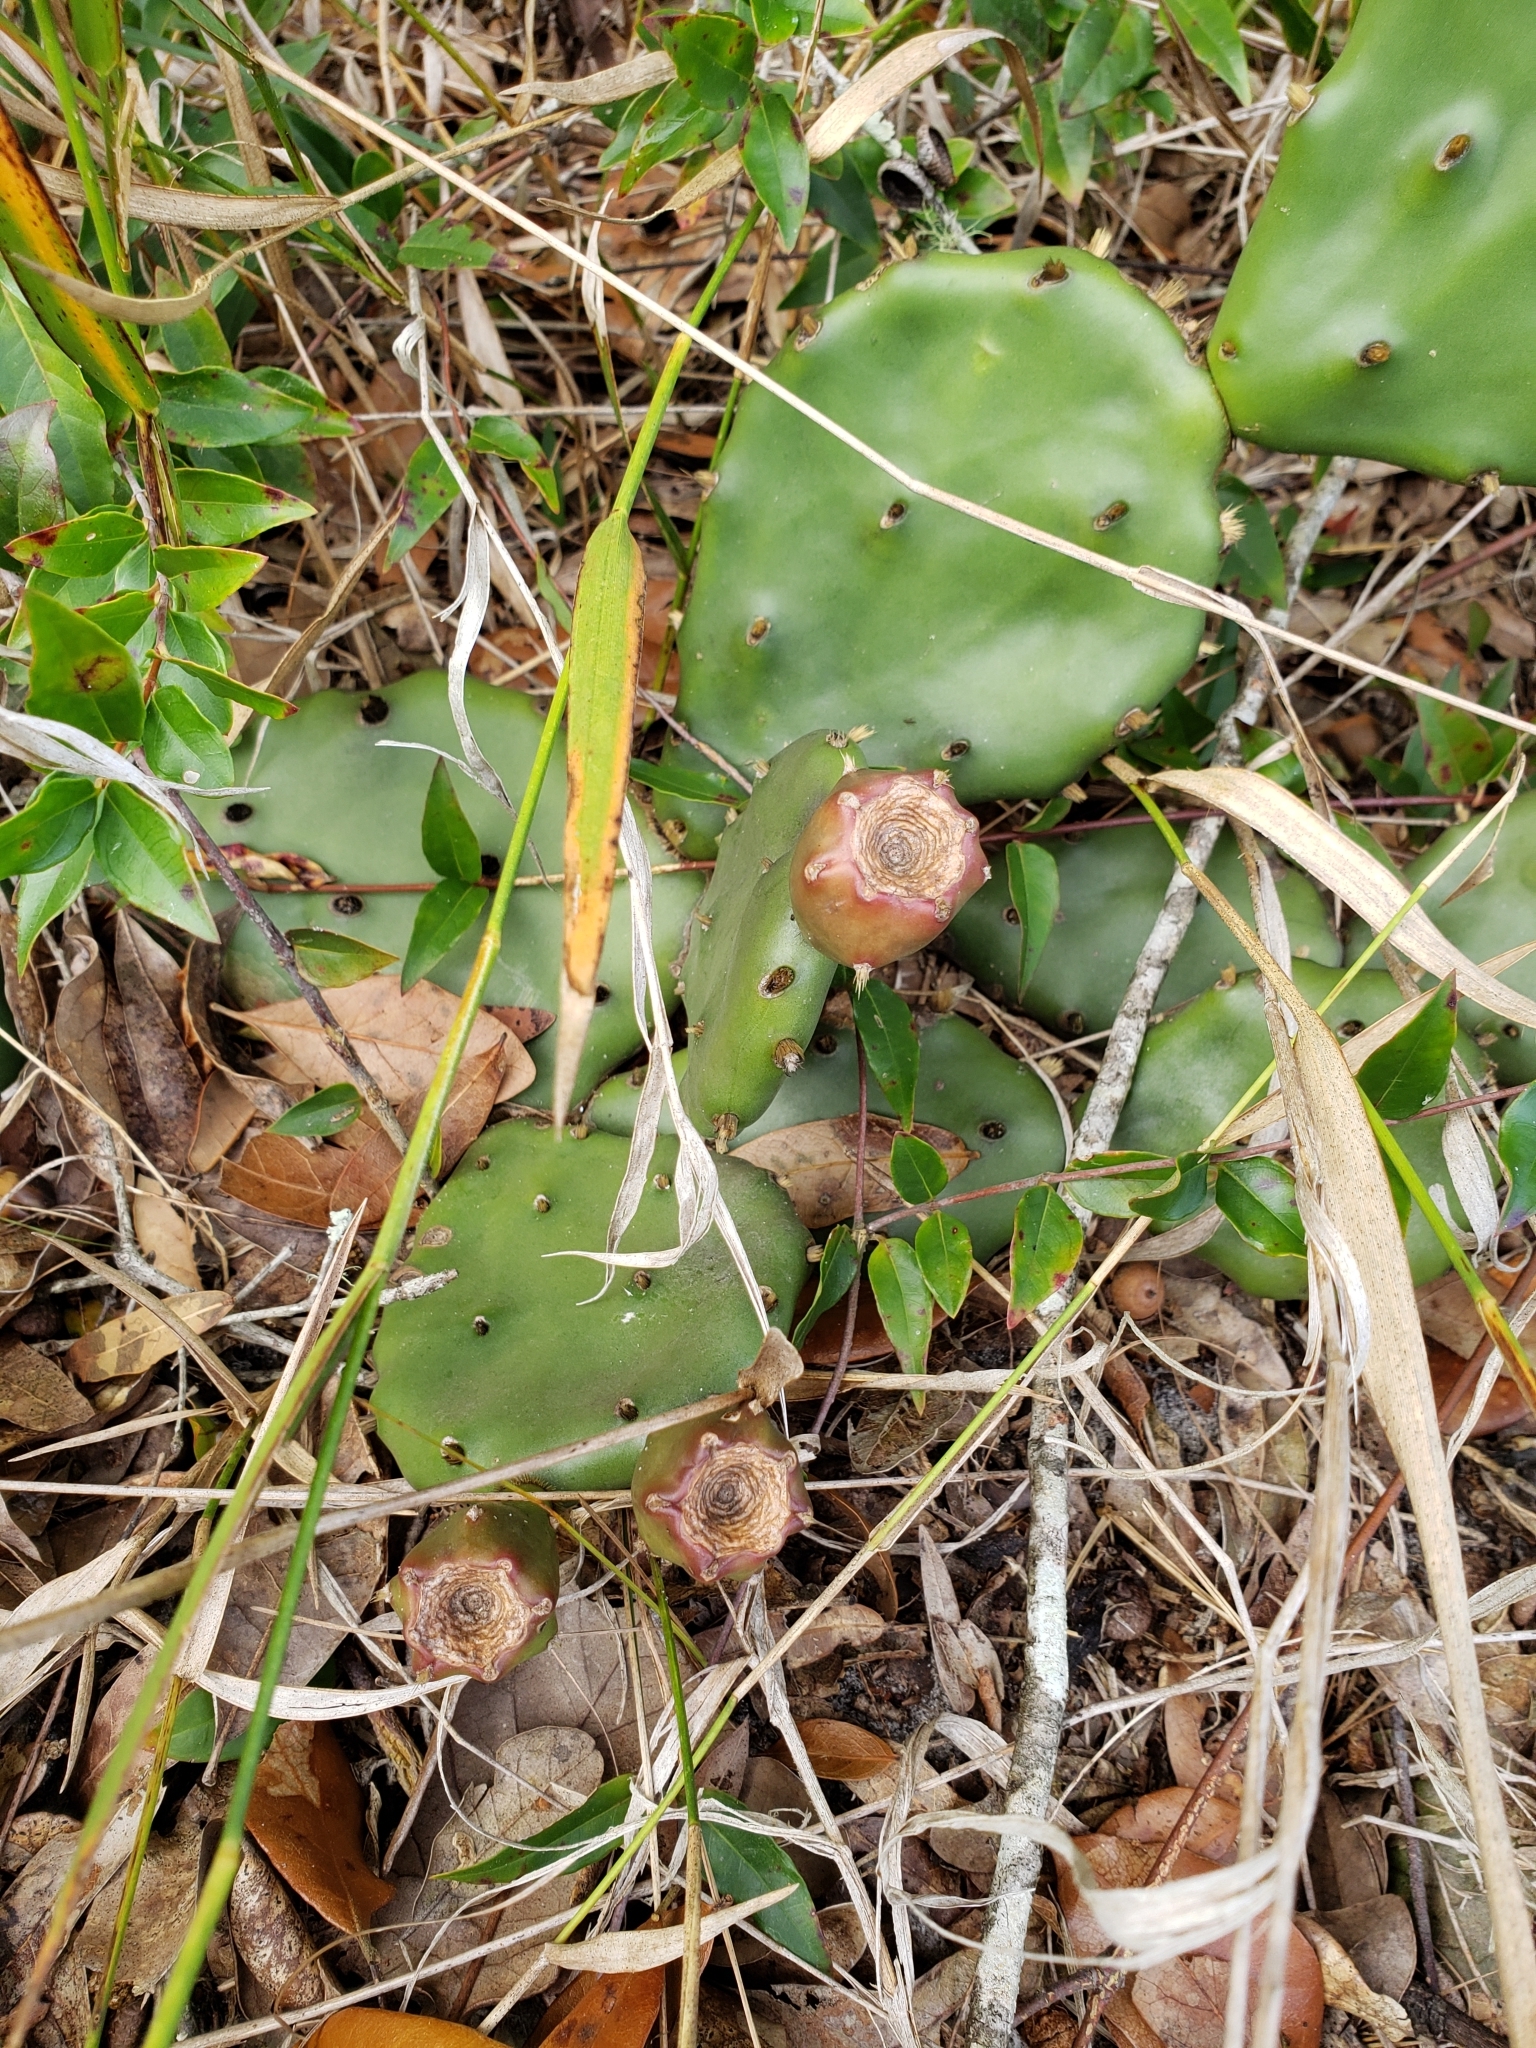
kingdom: Plantae
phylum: Tracheophyta
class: Magnoliopsida
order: Caryophyllales
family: Cactaceae
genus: Opuntia
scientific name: Opuntia austrina
